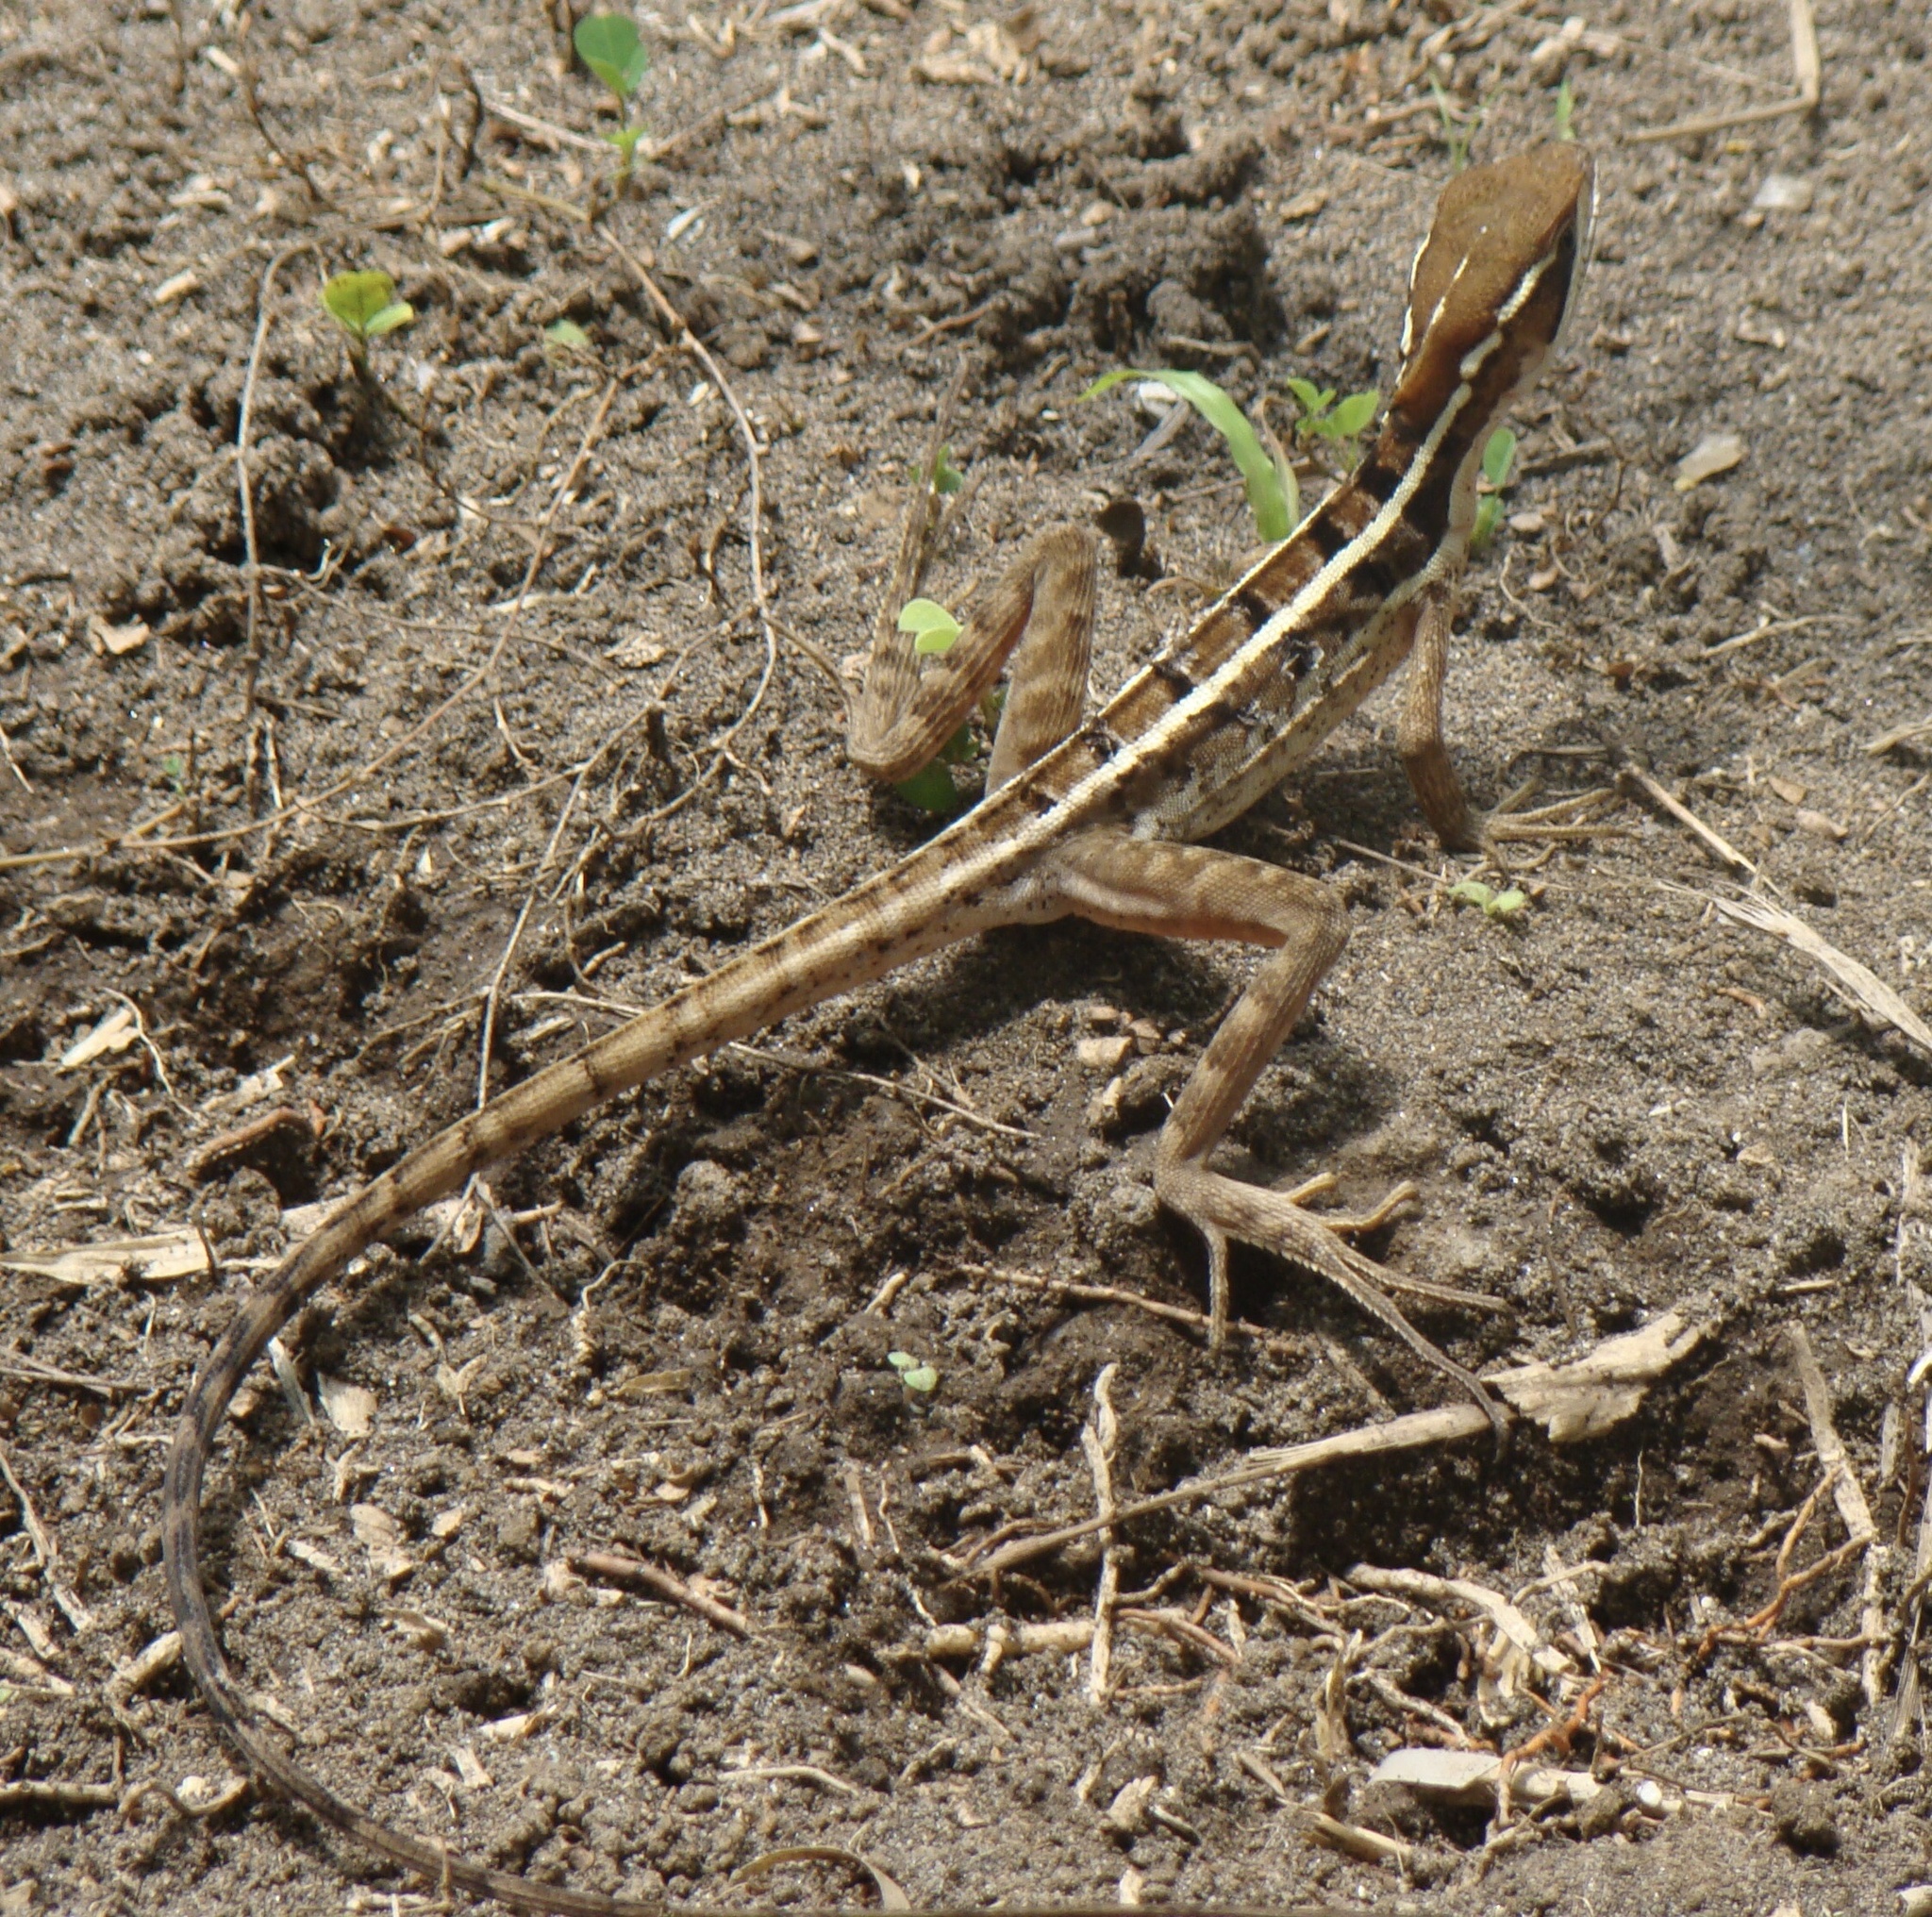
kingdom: Animalia
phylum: Chordata
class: Squamata
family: Corytophanidae
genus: Basiliscus
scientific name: Basiliscus vittatus
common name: Brown basilisk
